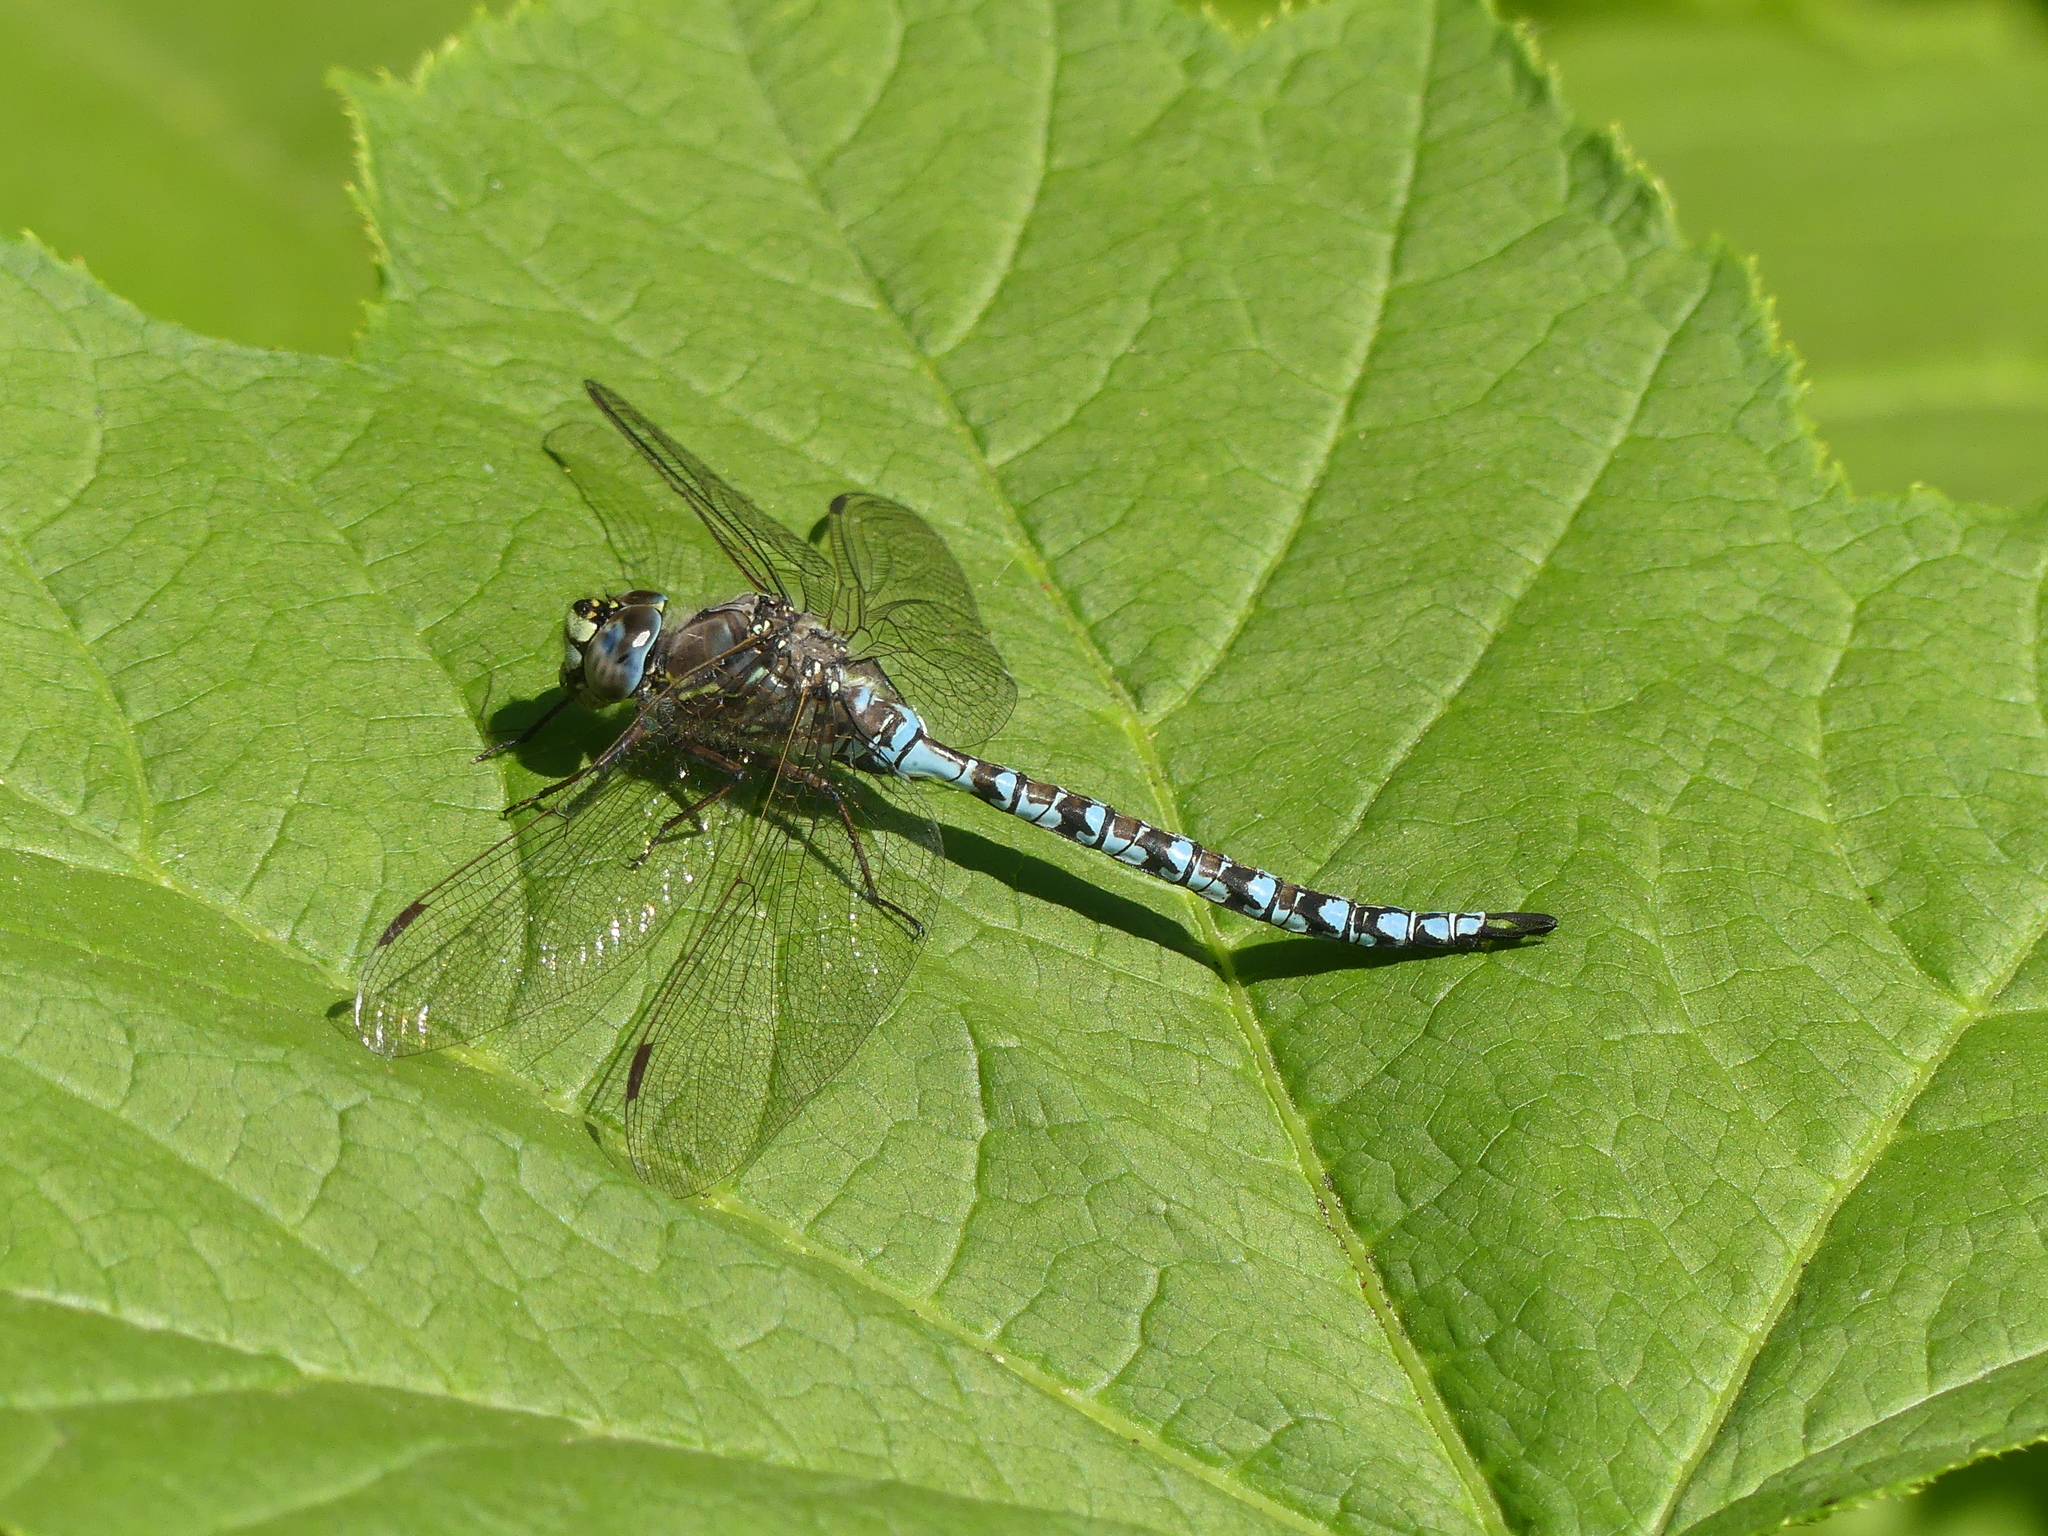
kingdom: Animalia
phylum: Arthropoda
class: Insecta
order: Odonata
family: Aeshnidae
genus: Aeshna
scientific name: Aeshna sitchensis
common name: Zigzag darner
